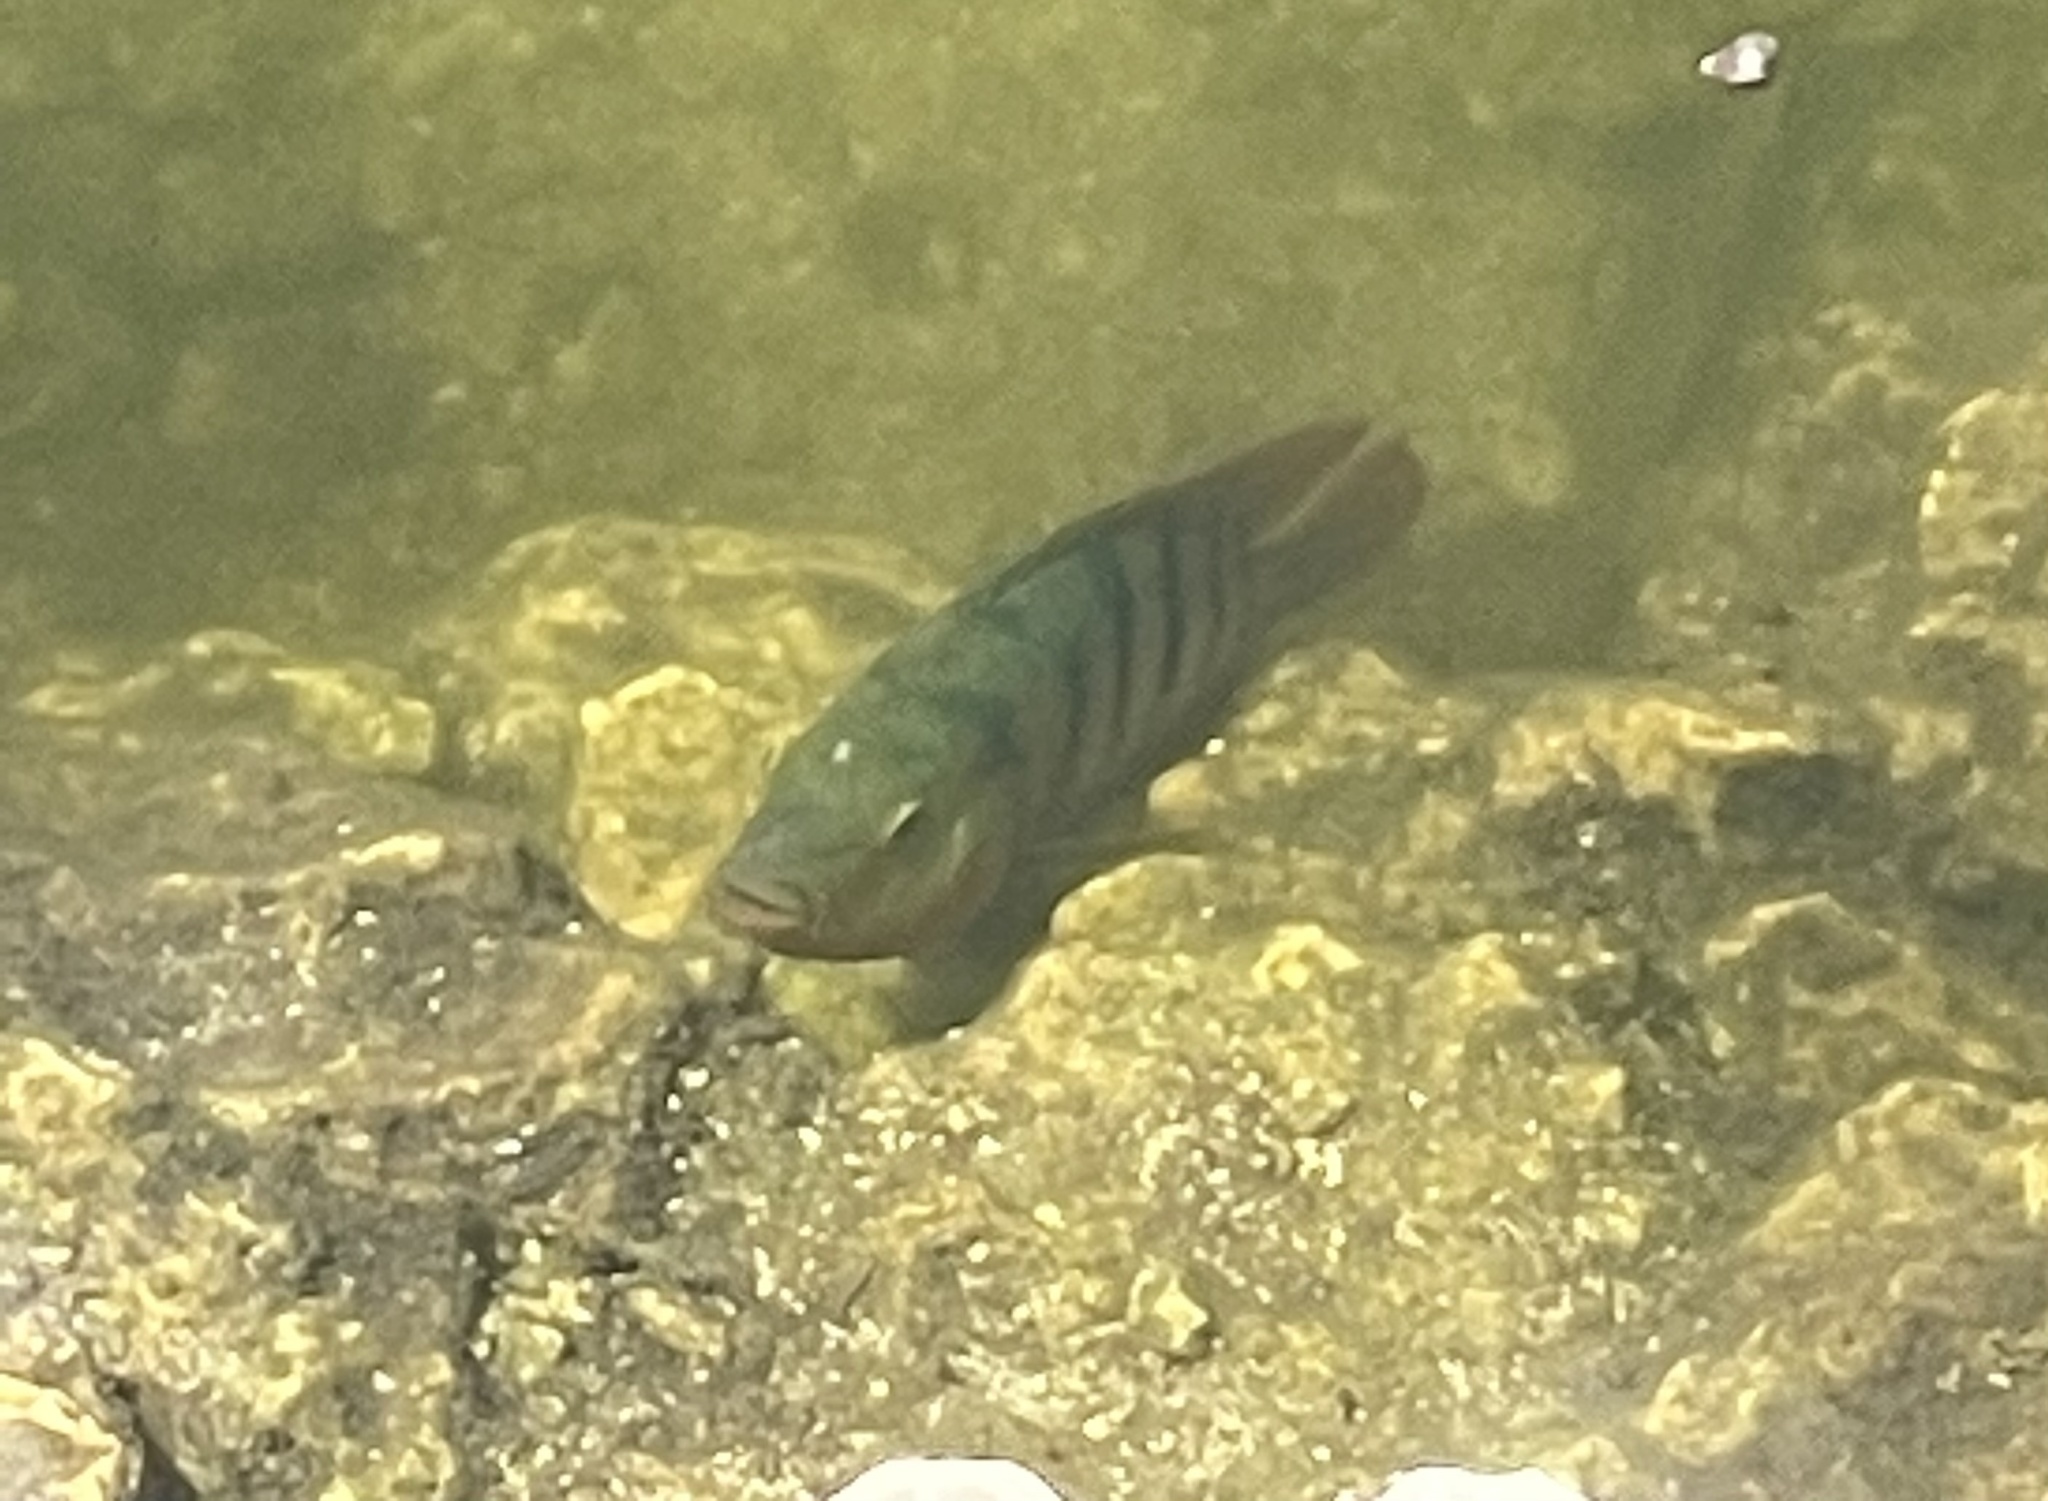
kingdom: Animalia
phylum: Chordata
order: Perciformes
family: Cichlidae
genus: Mayaheros
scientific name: Mayaheros urophthalmus
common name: Mayan cichlid
